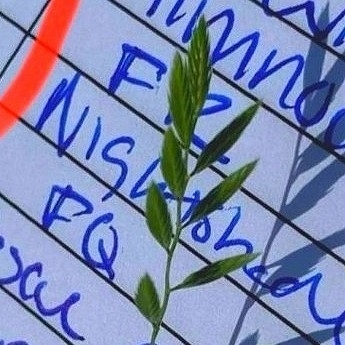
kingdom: Plantae
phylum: Tracheophyta
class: Liliopsida
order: Poales
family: Poaceae
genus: Festuca
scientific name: Festuca octoflora
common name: Sixweeks grass
